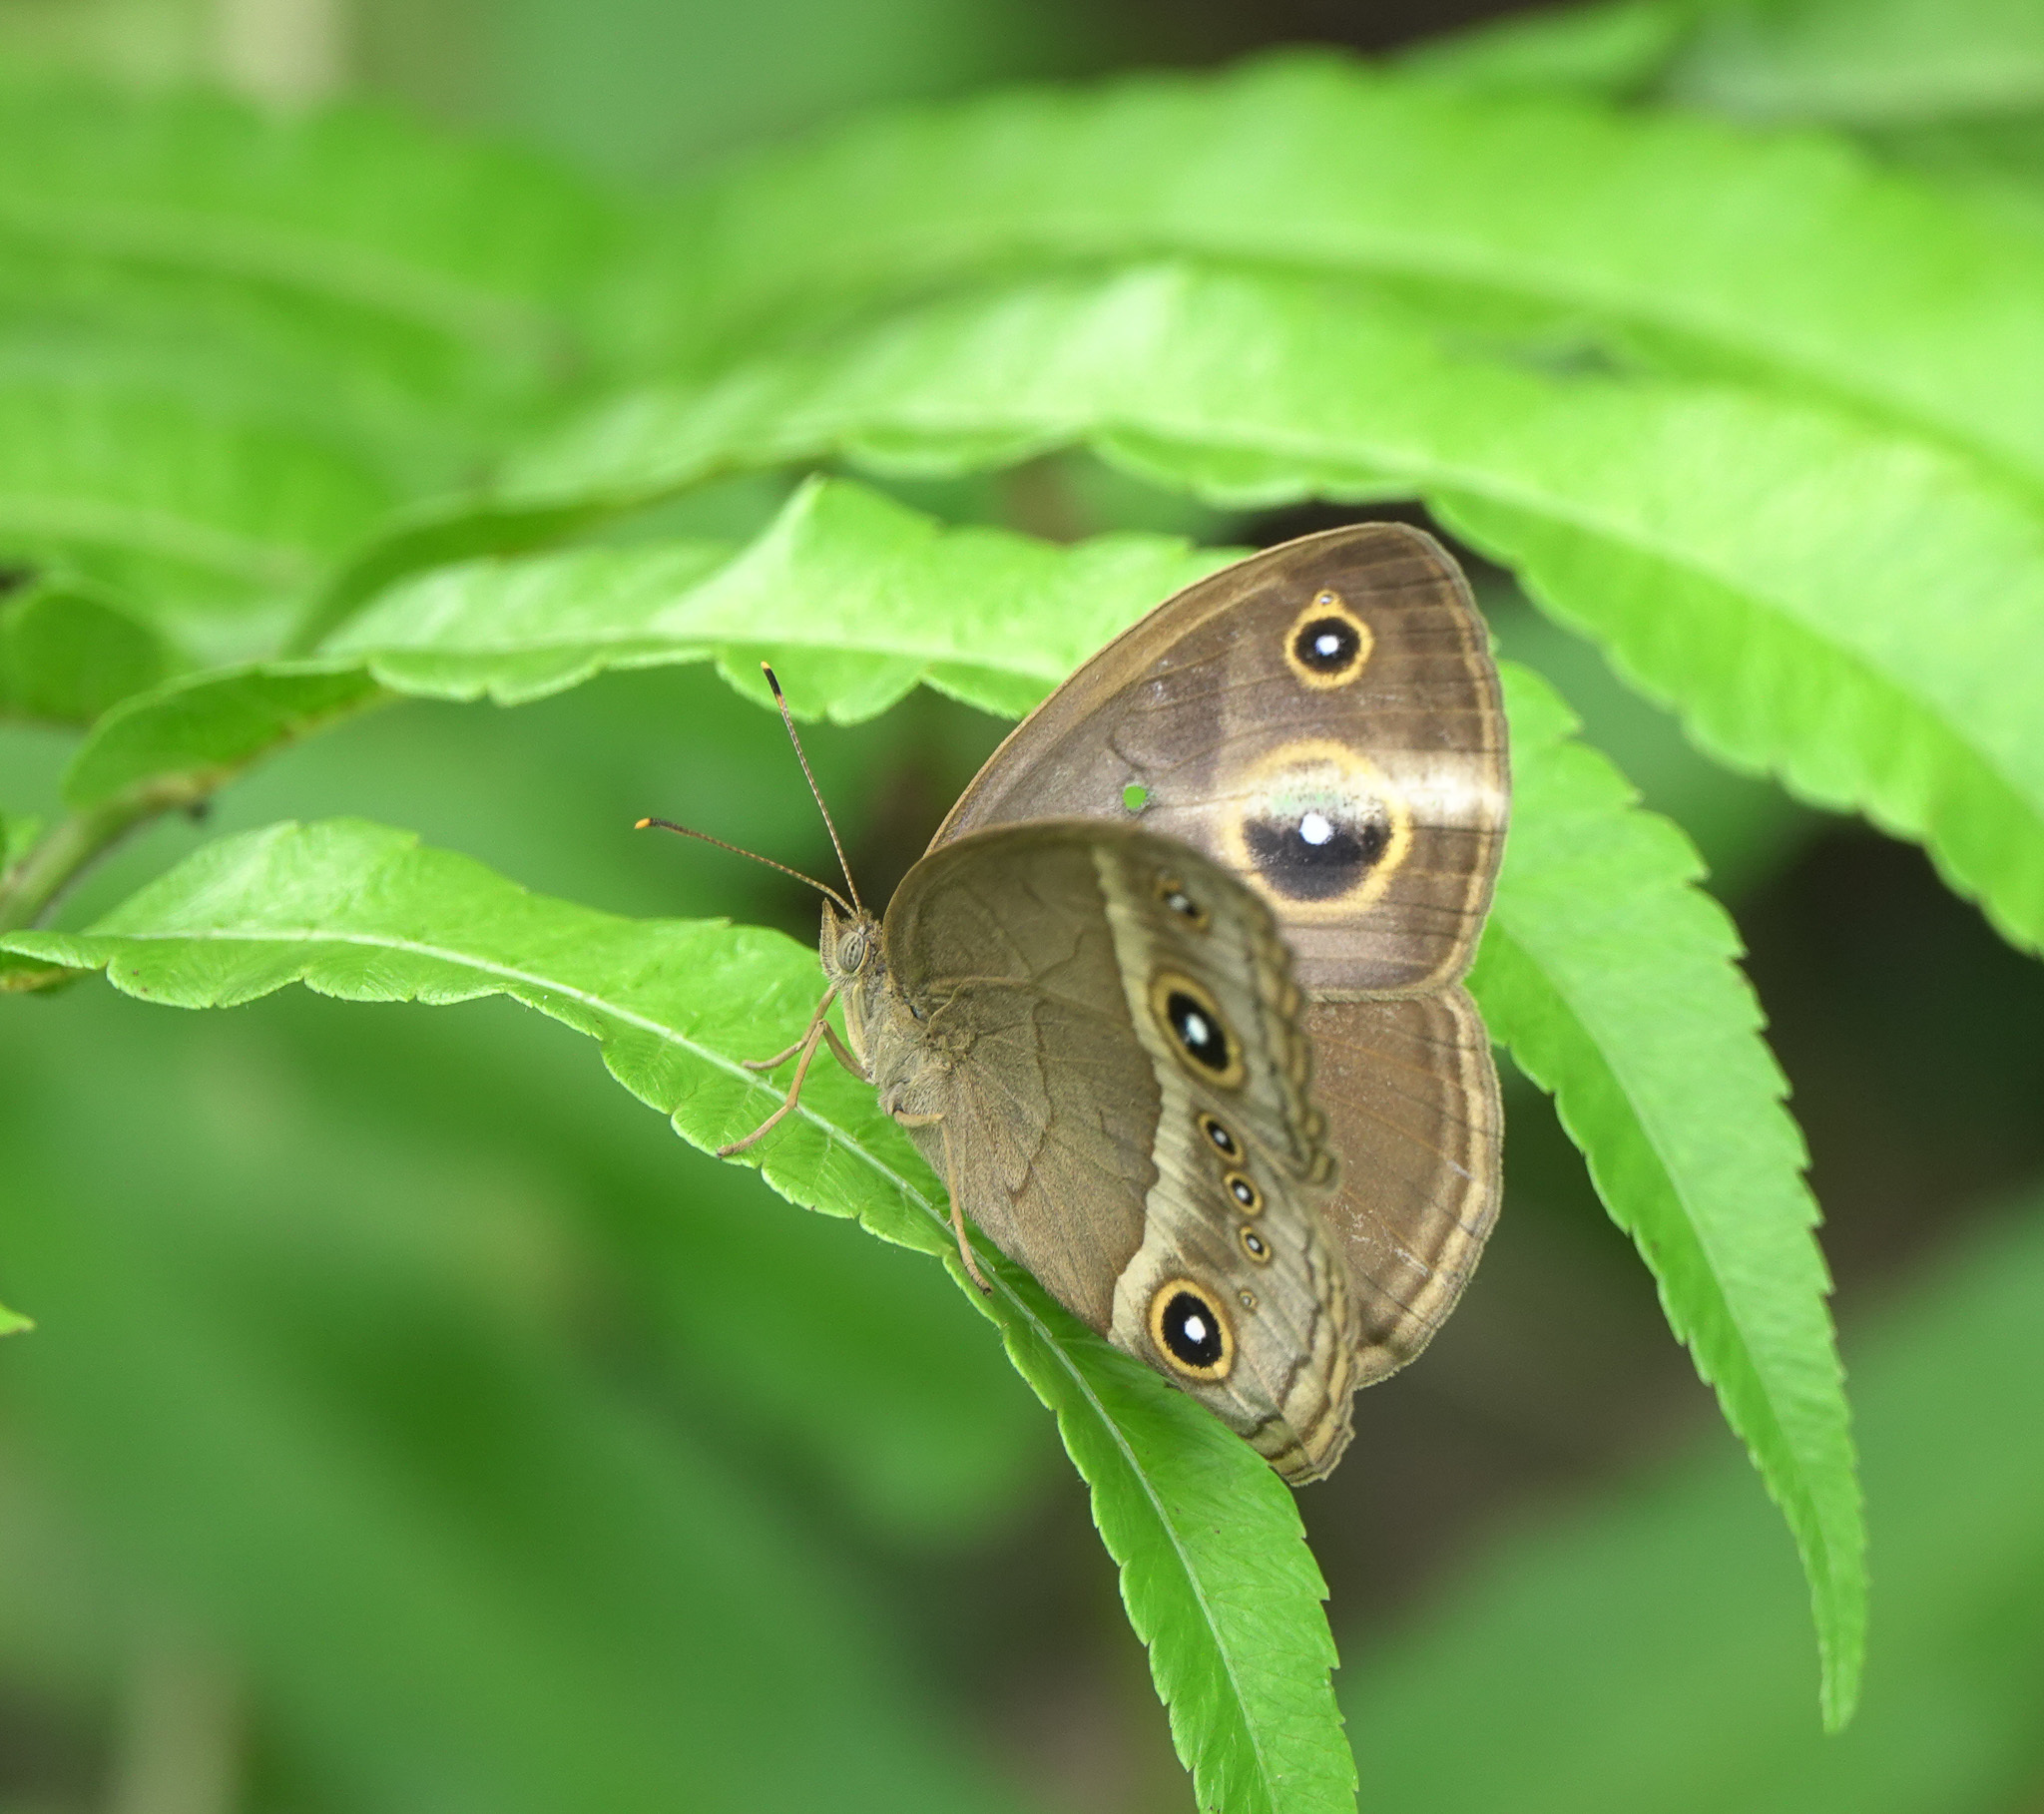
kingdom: Animalia
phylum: Arthropoda
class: Insecta
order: Lepidoptera
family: Nymphalidae
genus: Mycalesis
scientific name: Mycalesis gotama
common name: Chinese bushbrown
